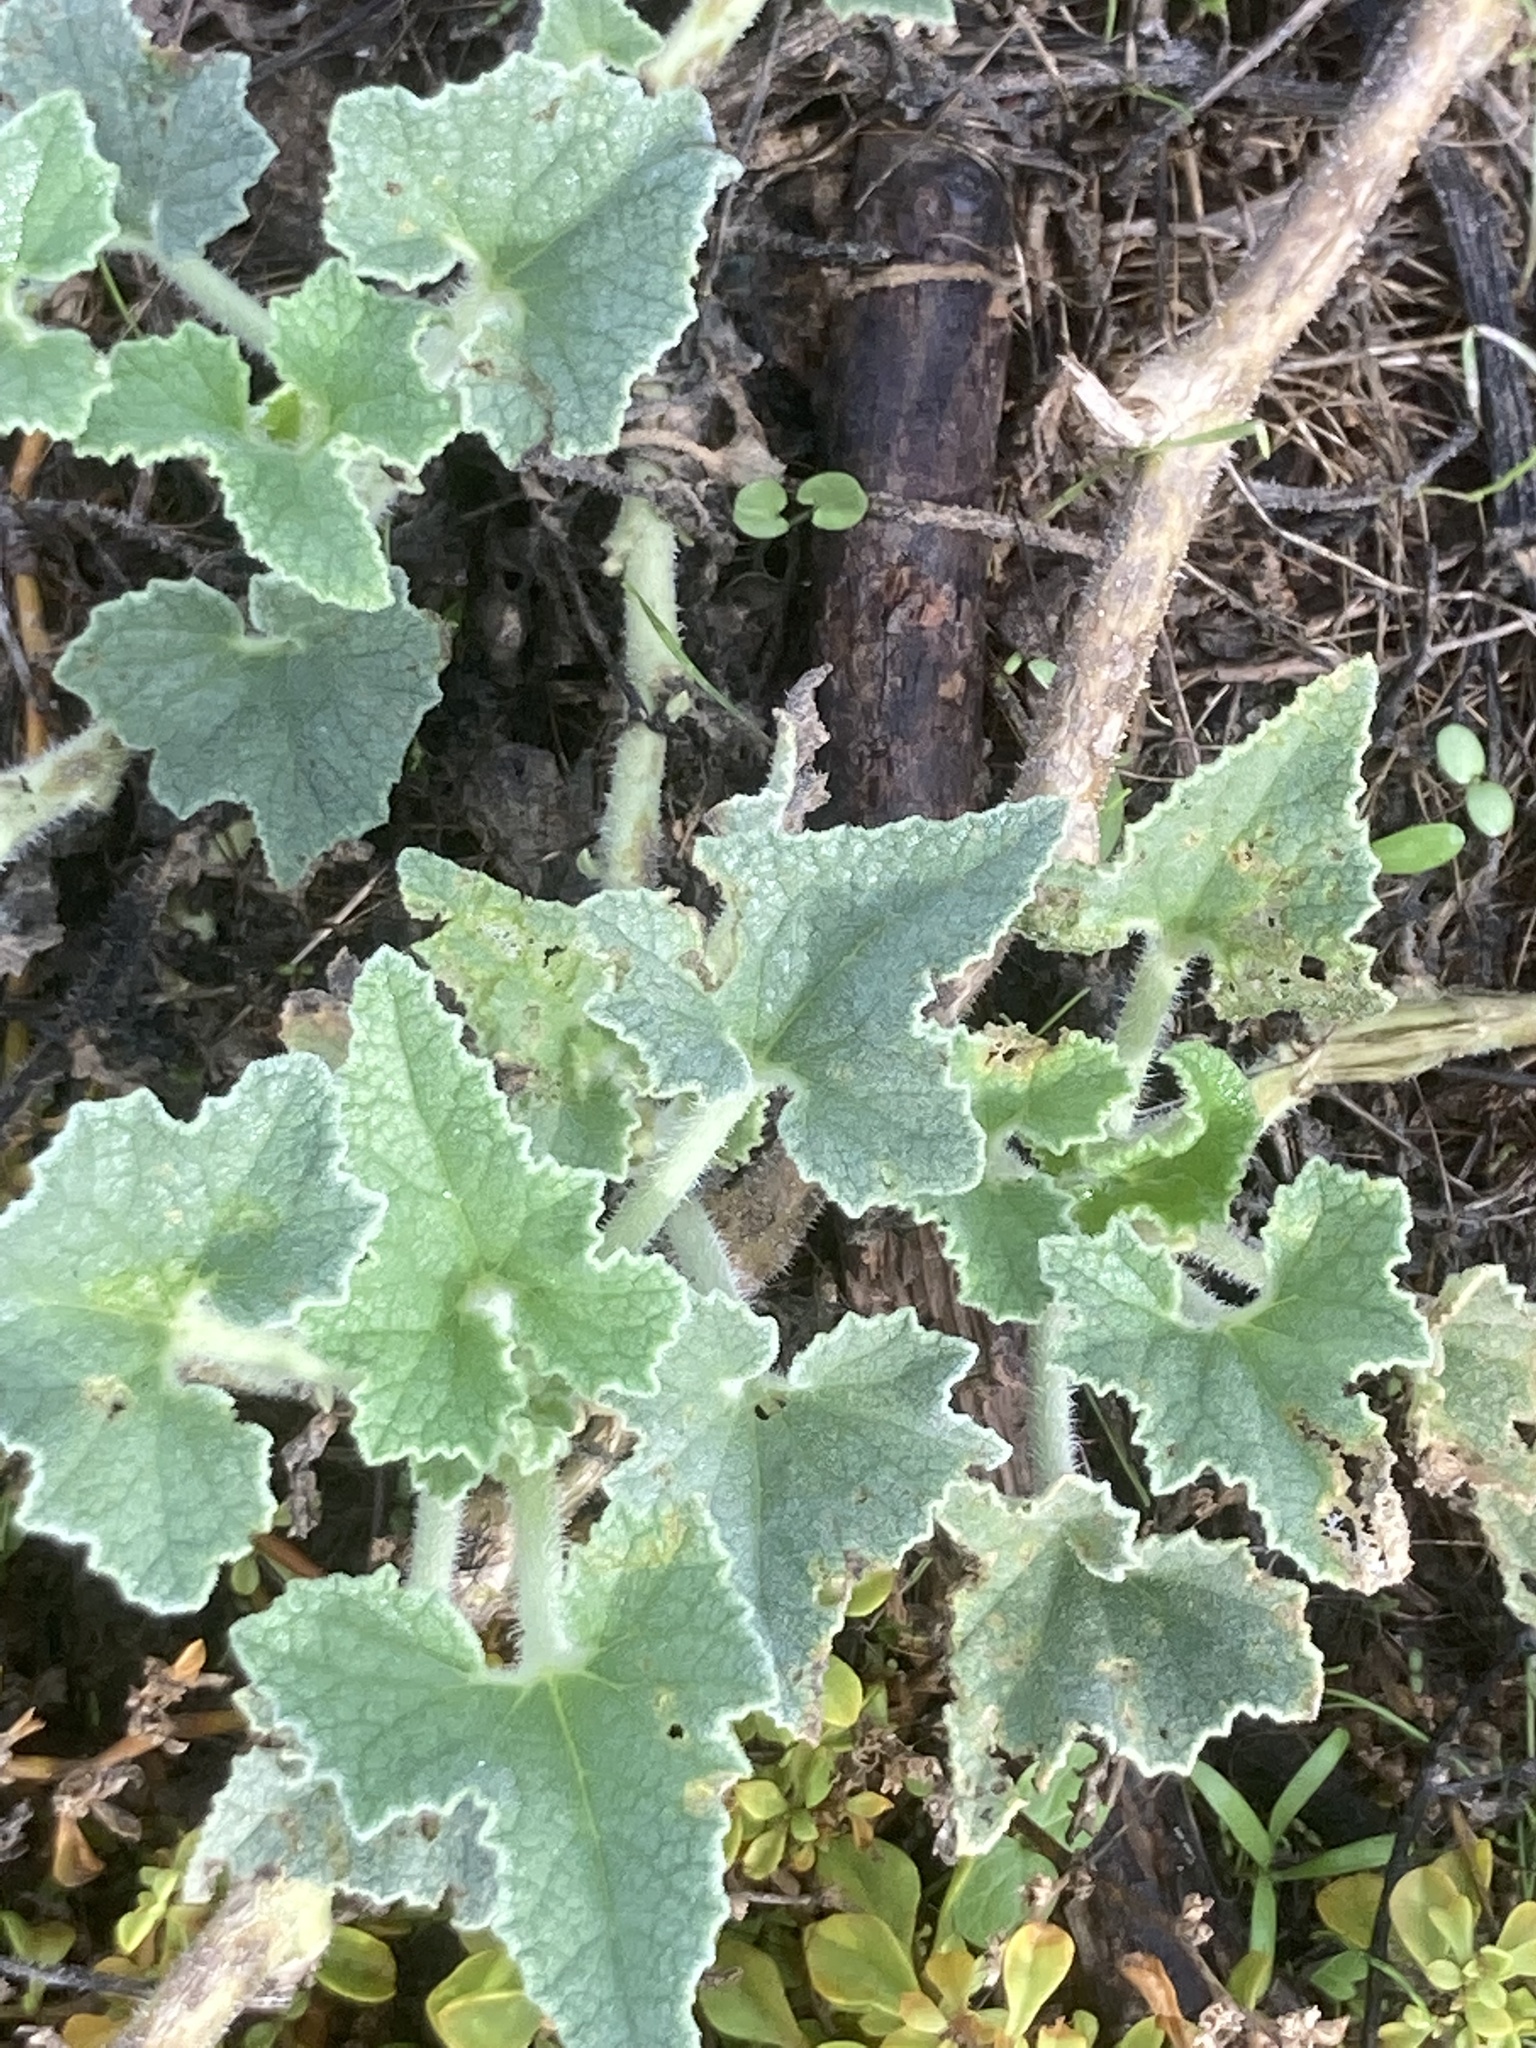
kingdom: Plantae
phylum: Tracheophyta
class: Magnoliopsida
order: Cucurbitales
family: Cucurbitaceae
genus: Ecballium
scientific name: Ecballium elaterium
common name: Squirting cucumber
